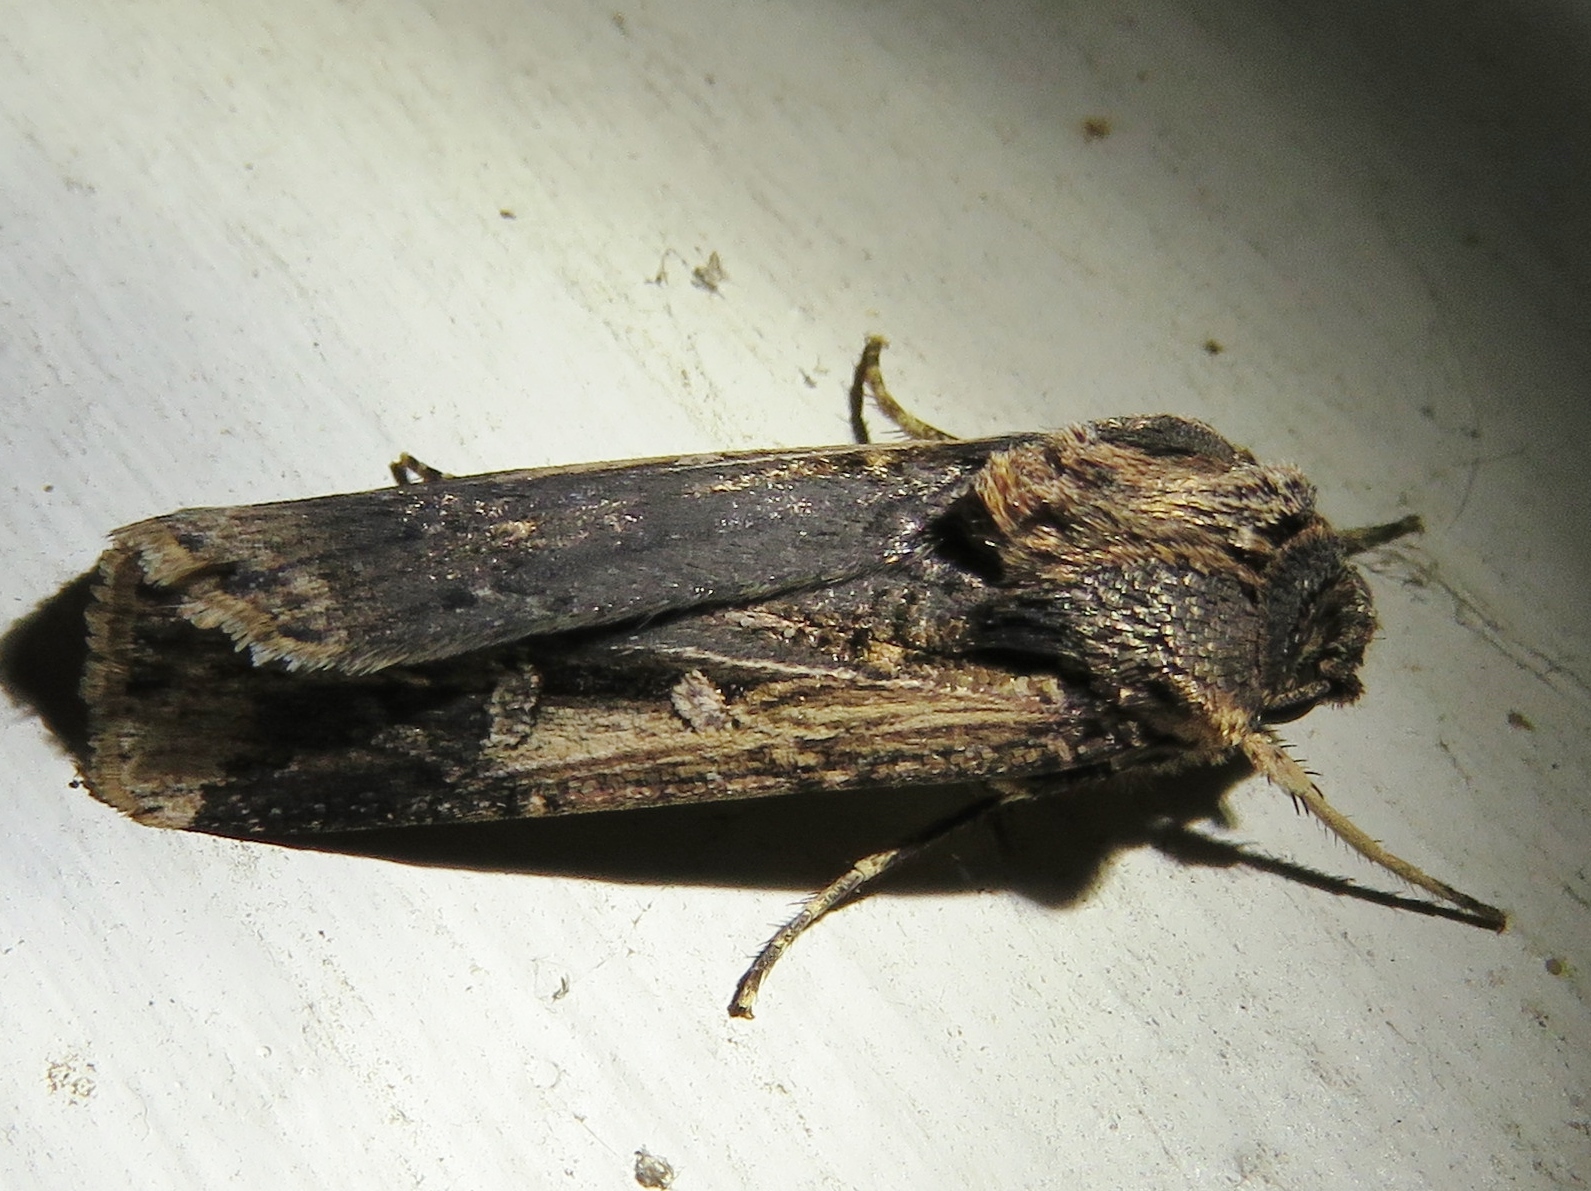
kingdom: Animalia
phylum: Arthropoda
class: Insecta
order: Lepidoptera
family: Noctuidae
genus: Feltia
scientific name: Feltia subterranea
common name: Granulate cutworm
